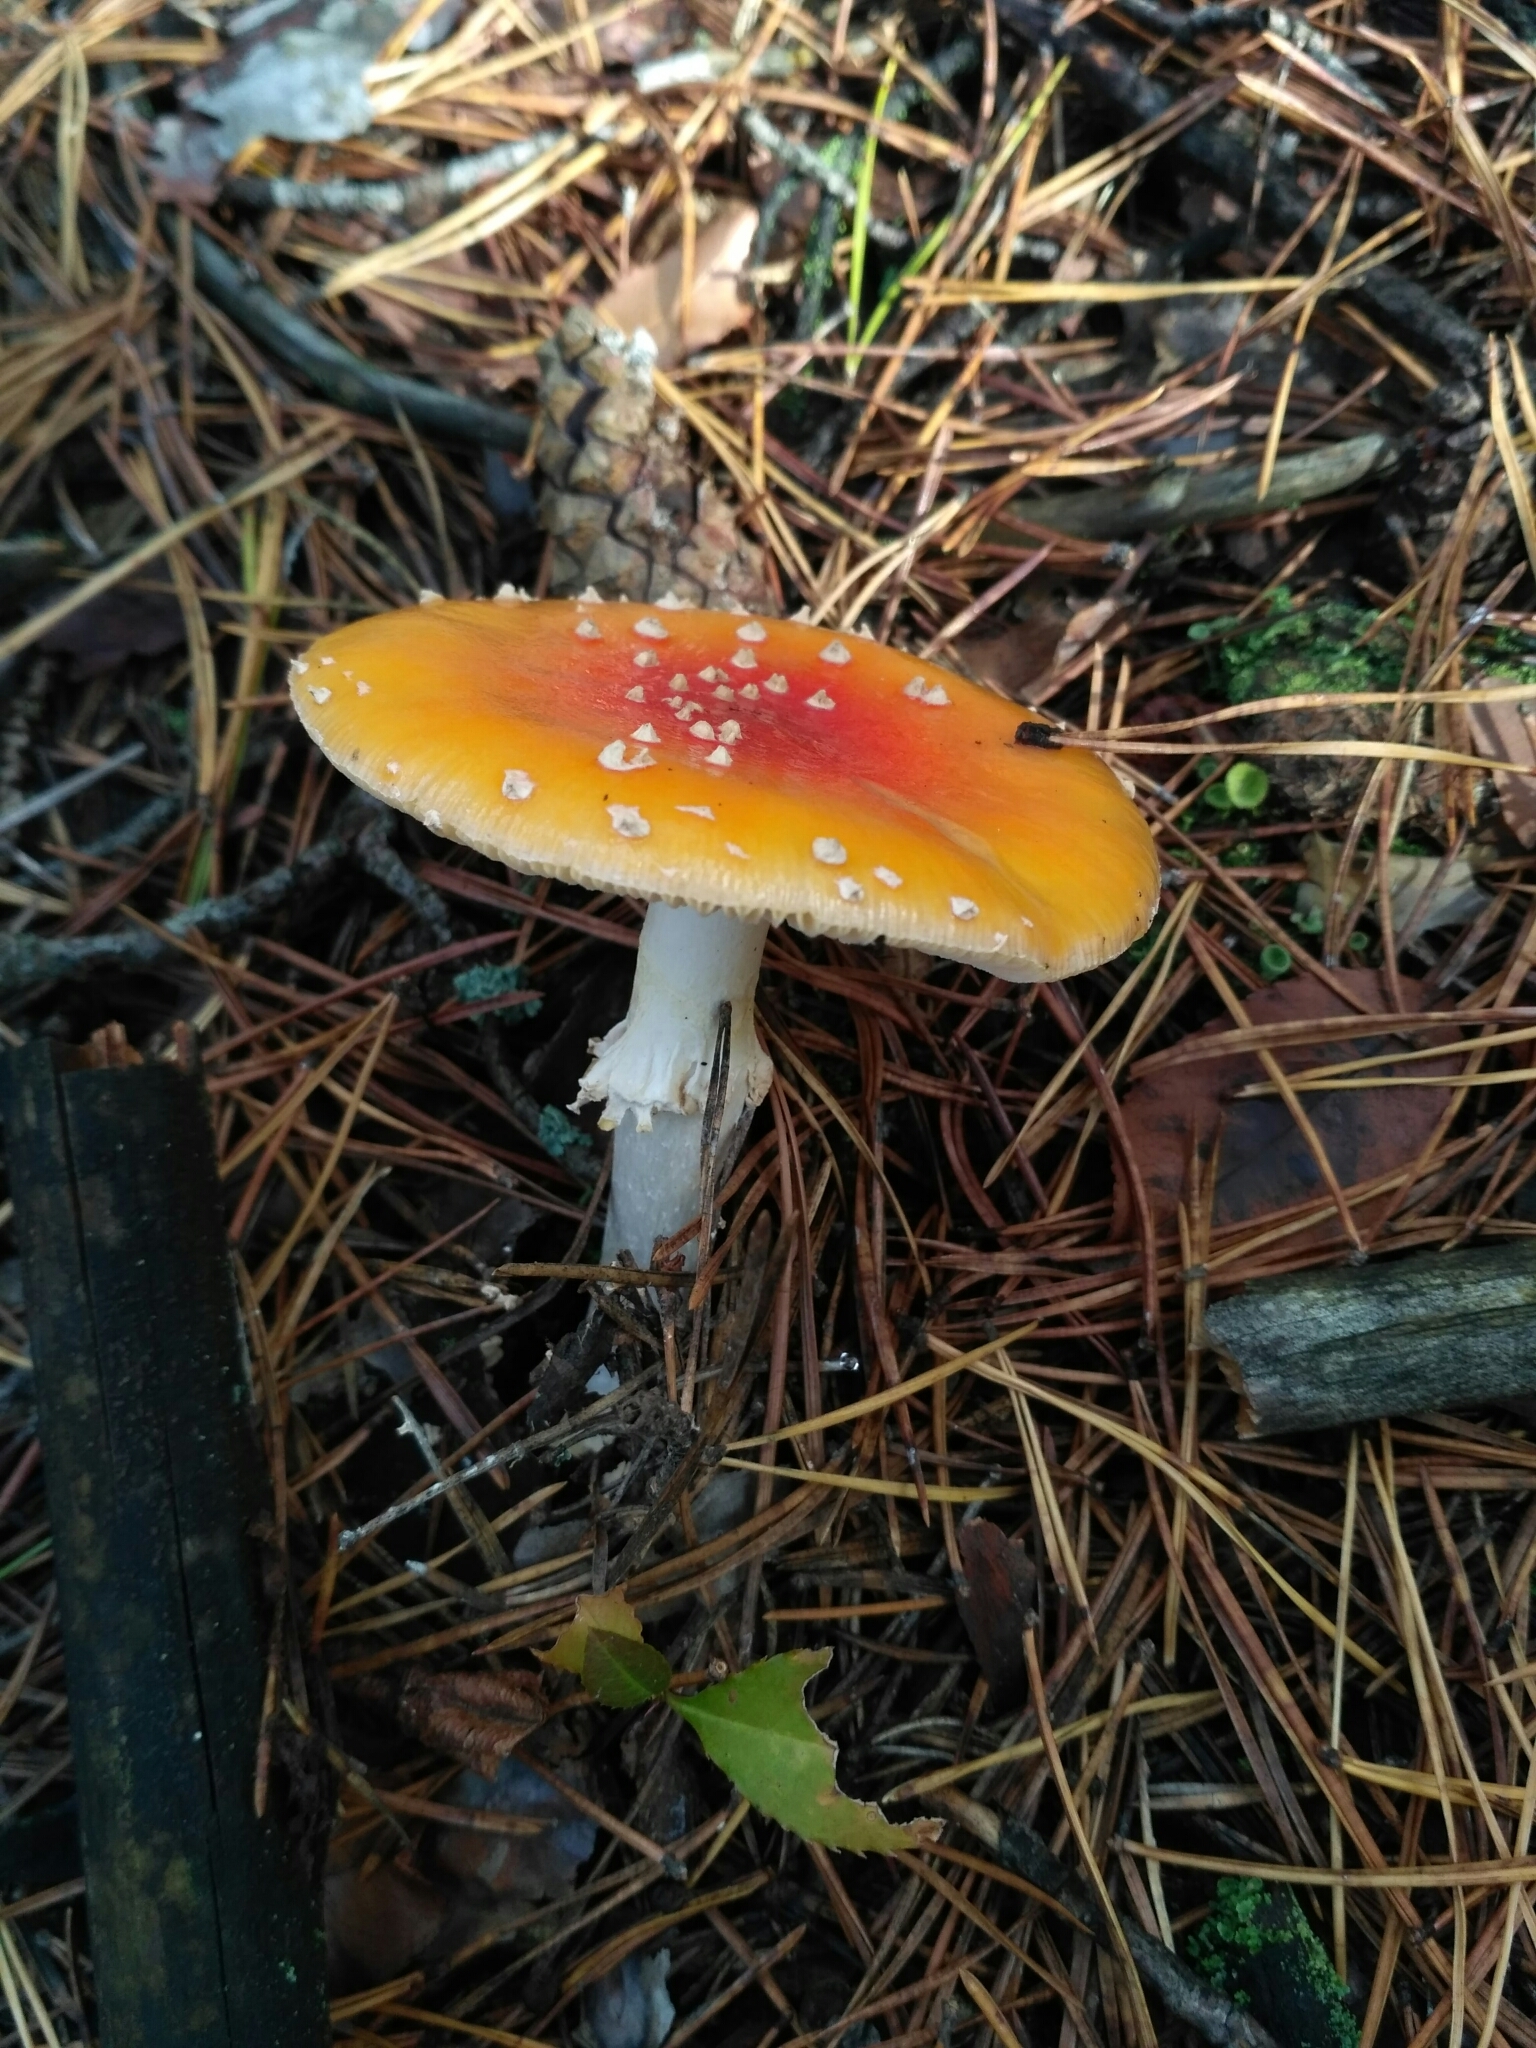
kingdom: Fungi
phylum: Basidiomycota
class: Agaricomycetes
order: Agaricales
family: Amanitaceae
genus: Amanita
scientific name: Amanita muscaria
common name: Fly agaric
